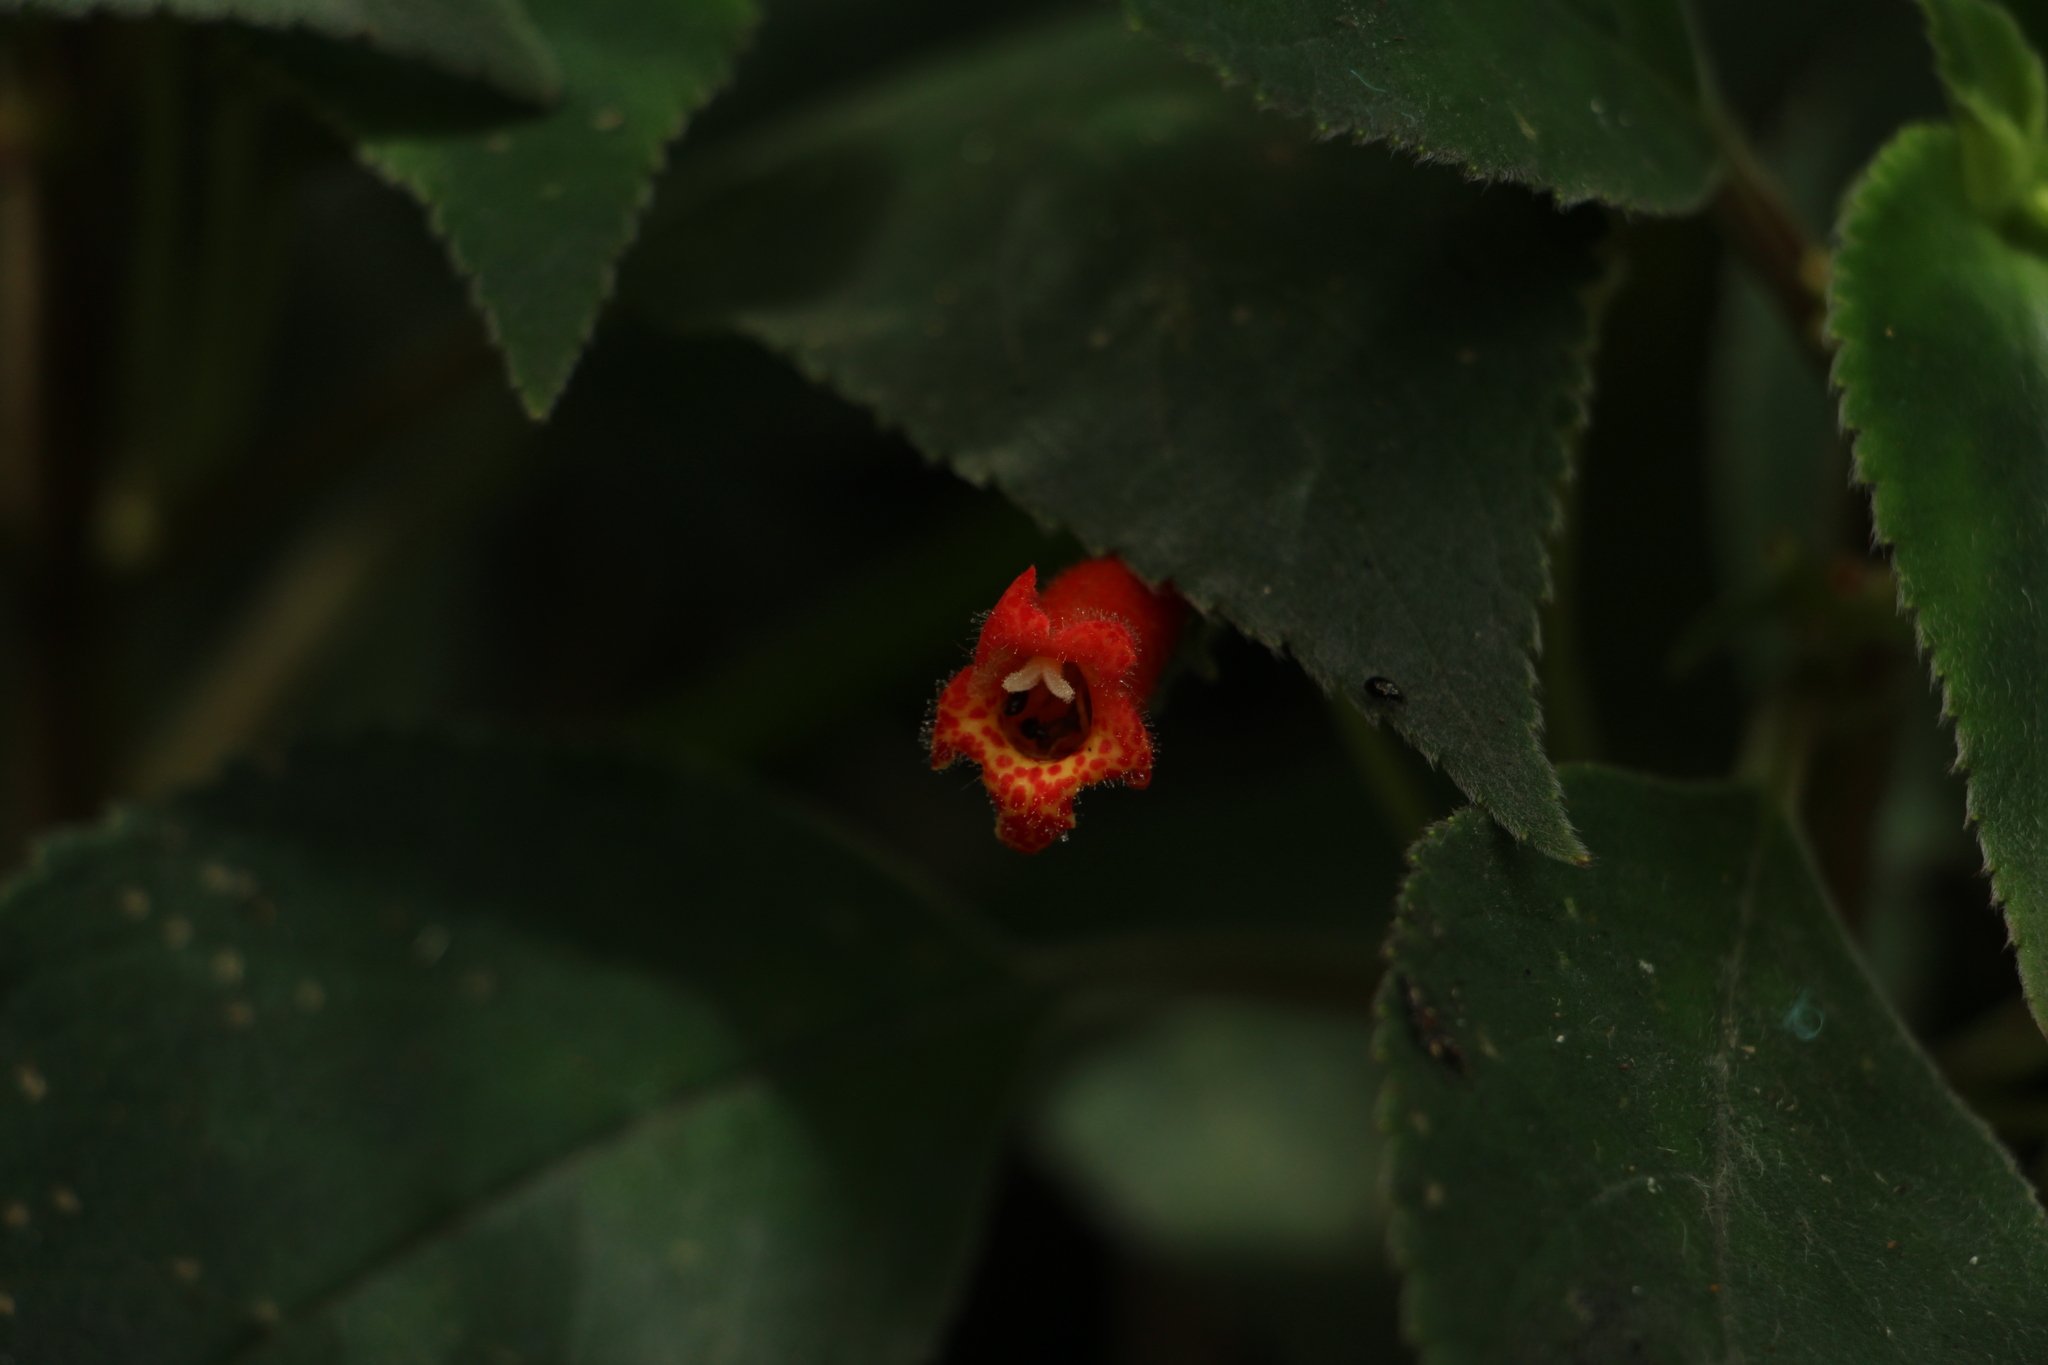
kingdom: Plantae
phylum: Tracheophyta
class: Magnoliopsida
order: Lamiales
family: Gesneriaceae
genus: Kohleria
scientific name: Kohleria hirsuta
